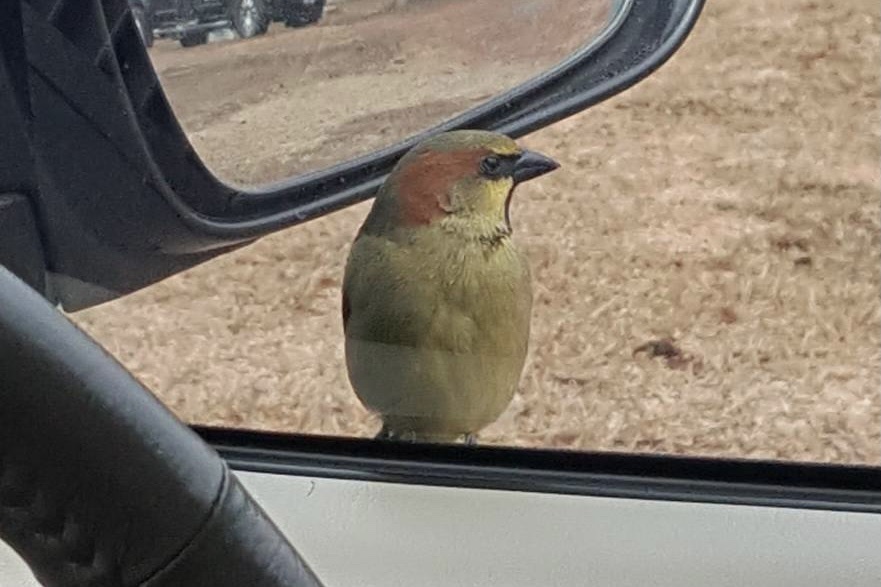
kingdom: Animalia
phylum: Chordata
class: Aves
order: Passeriformes
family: Passeridae
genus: Passer
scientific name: Passer flaveolus
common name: Plain-backed sparrow
